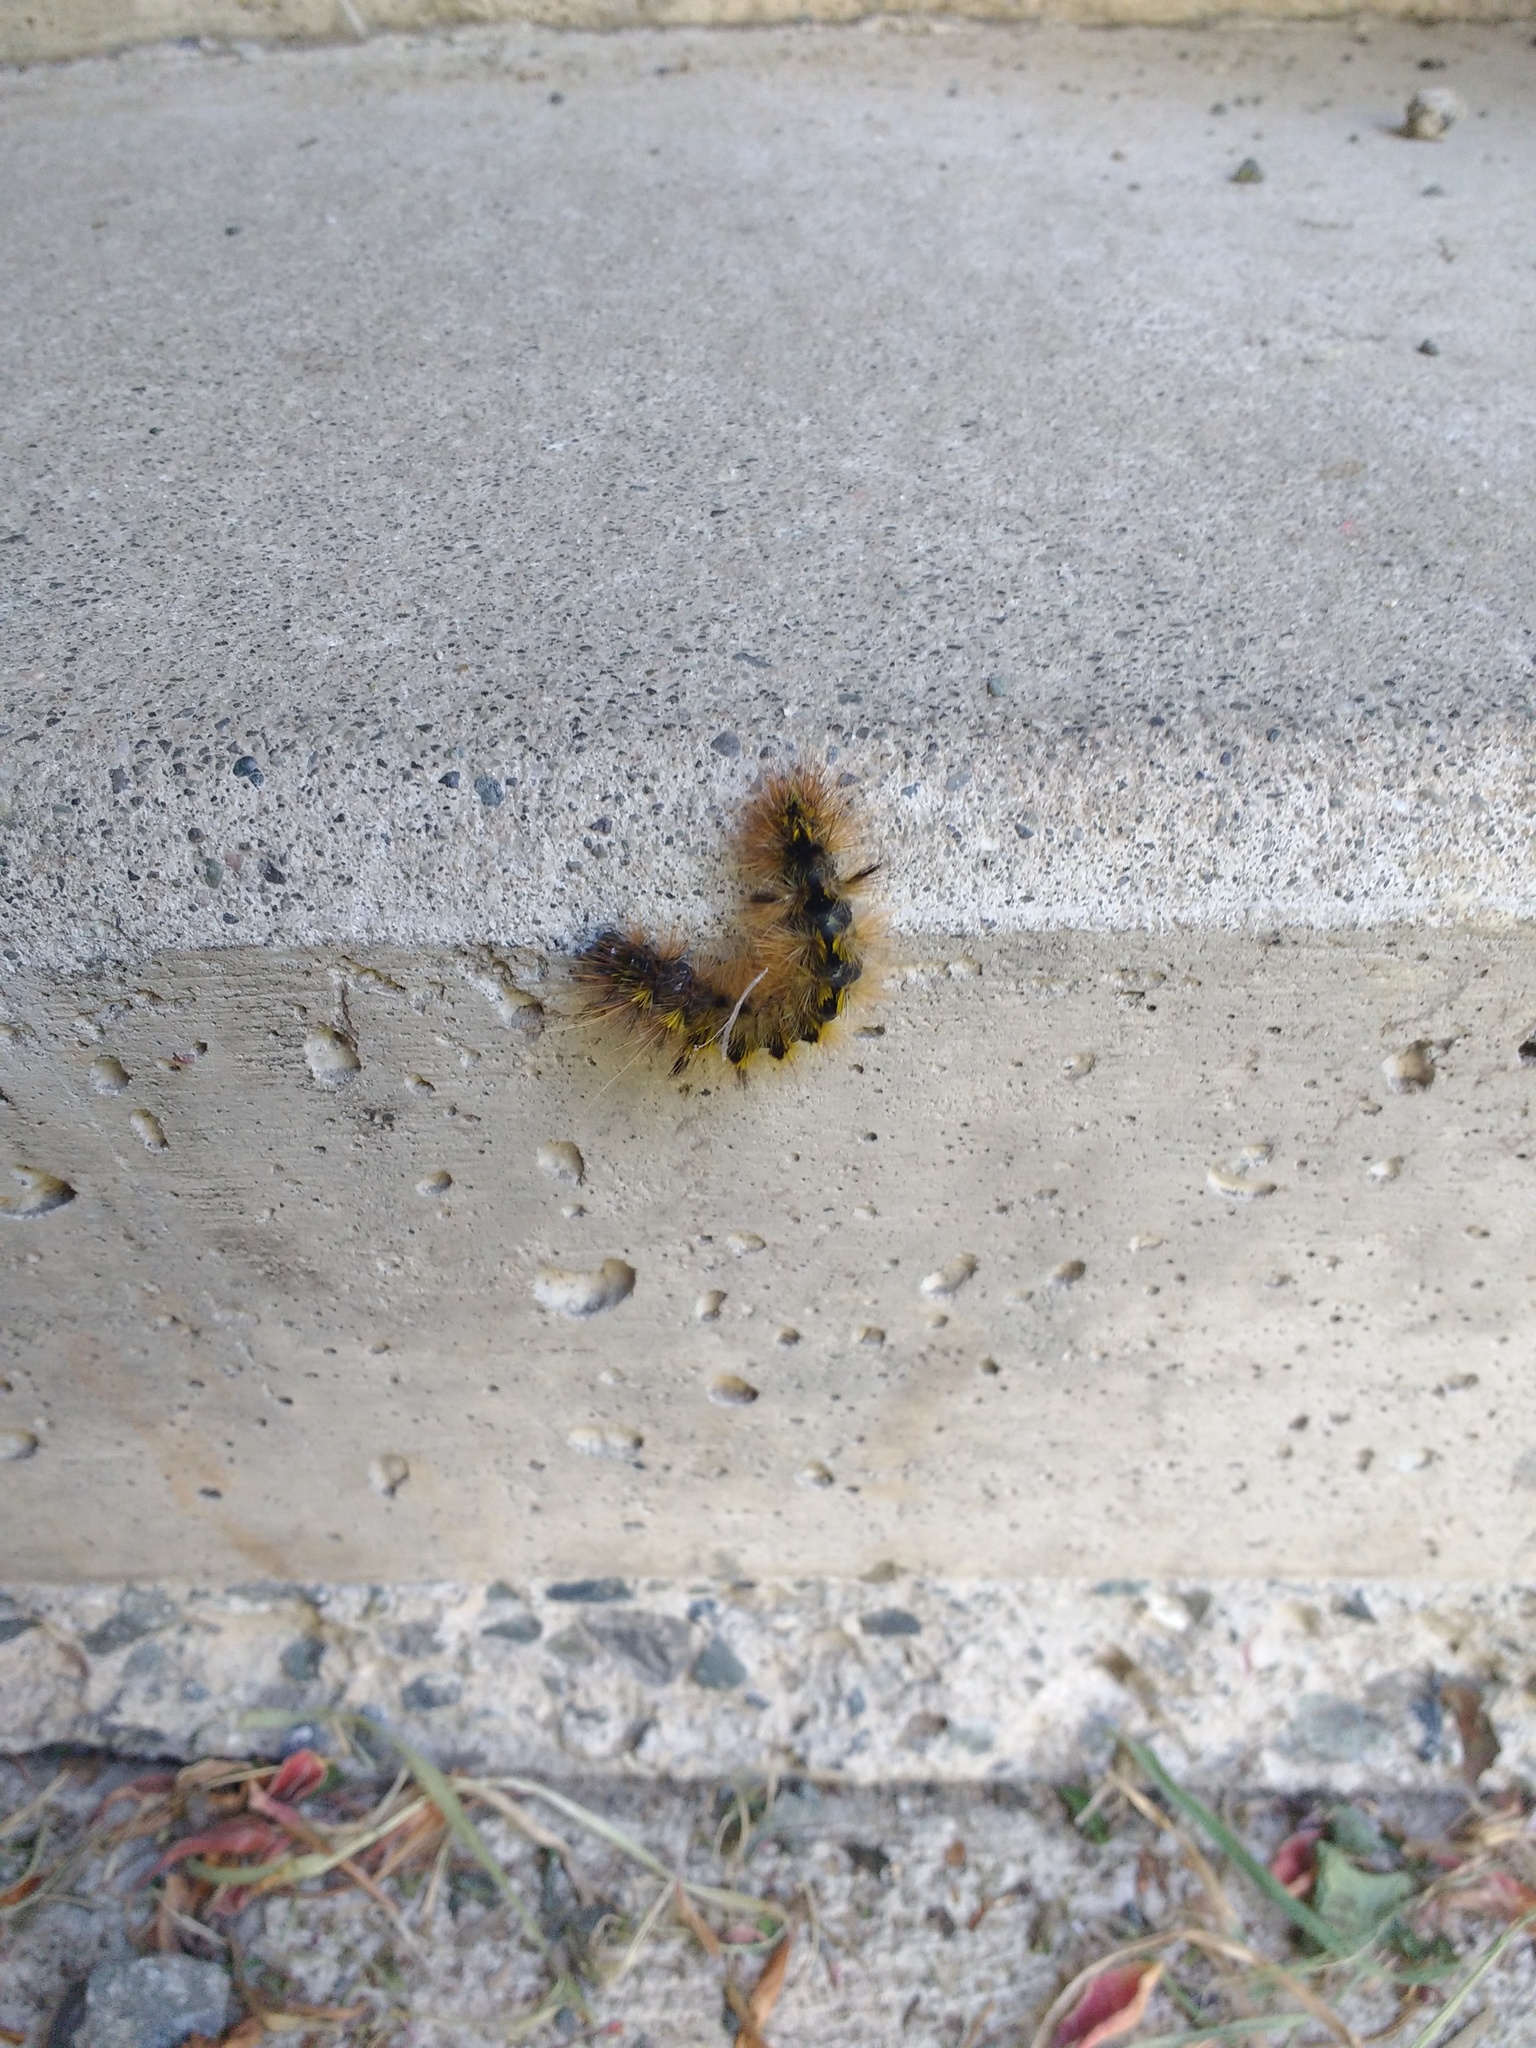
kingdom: Animalia
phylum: Arthropoda
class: Insecta
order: Lepidoptera
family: Erebidae
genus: Lophocampa
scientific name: Lophocampa argentata
